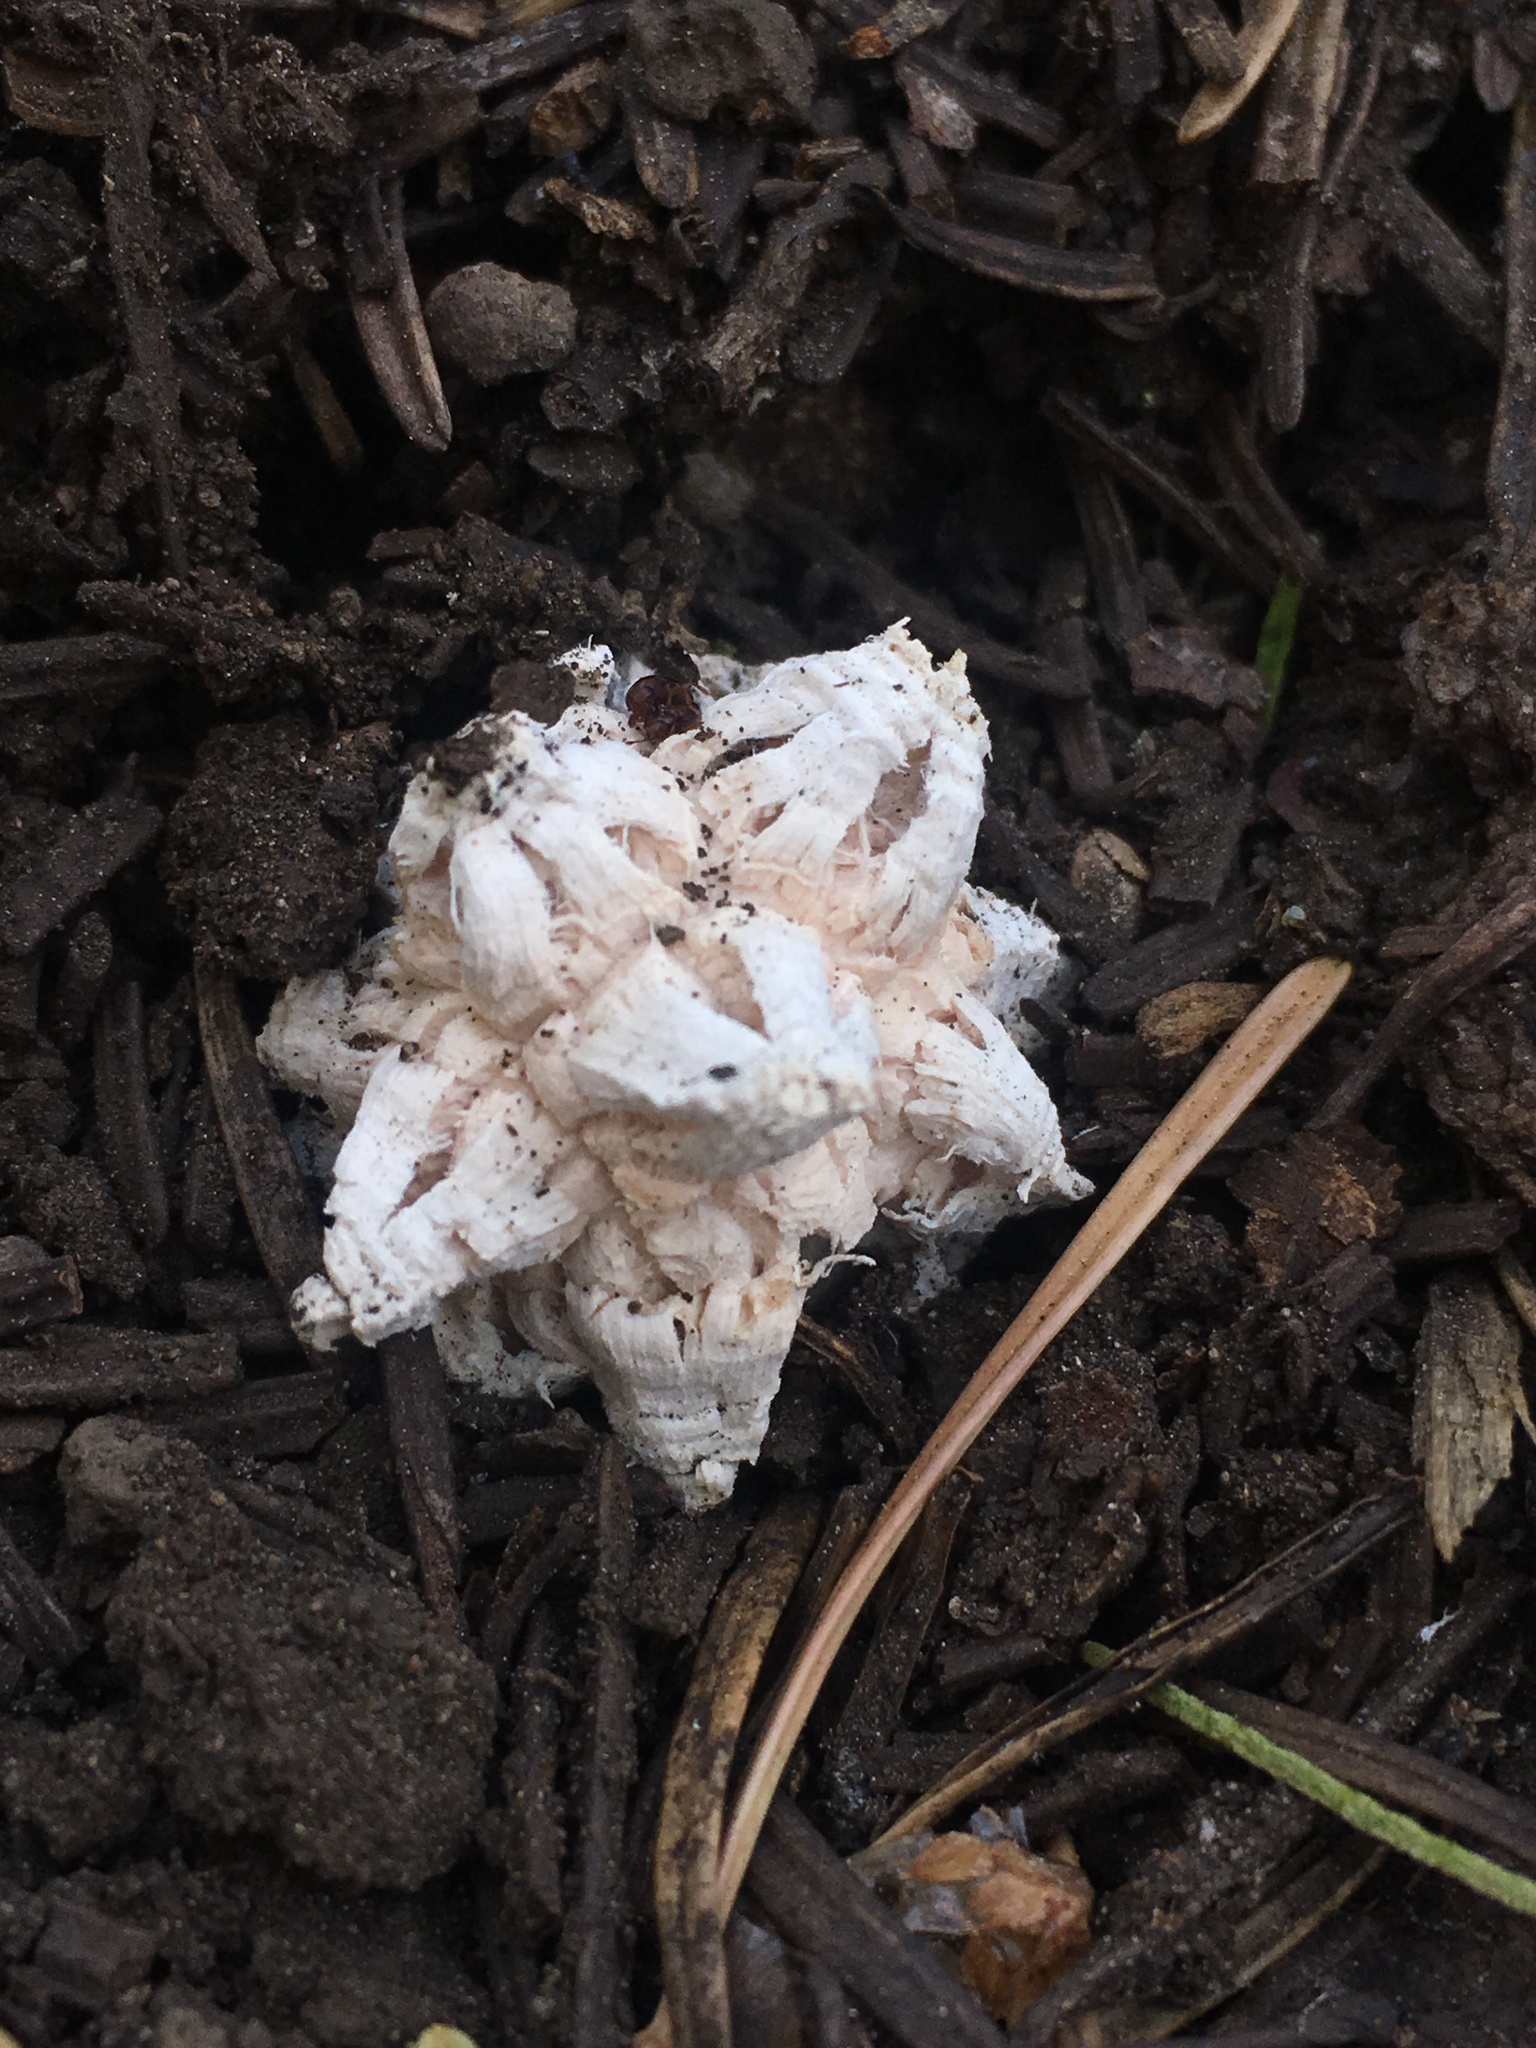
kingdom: Fungi
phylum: Basidiomycota
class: Agaricomycetes
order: Agaricales
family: Lycoperdaceae
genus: Calvatia
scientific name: Calvatia sculpta
